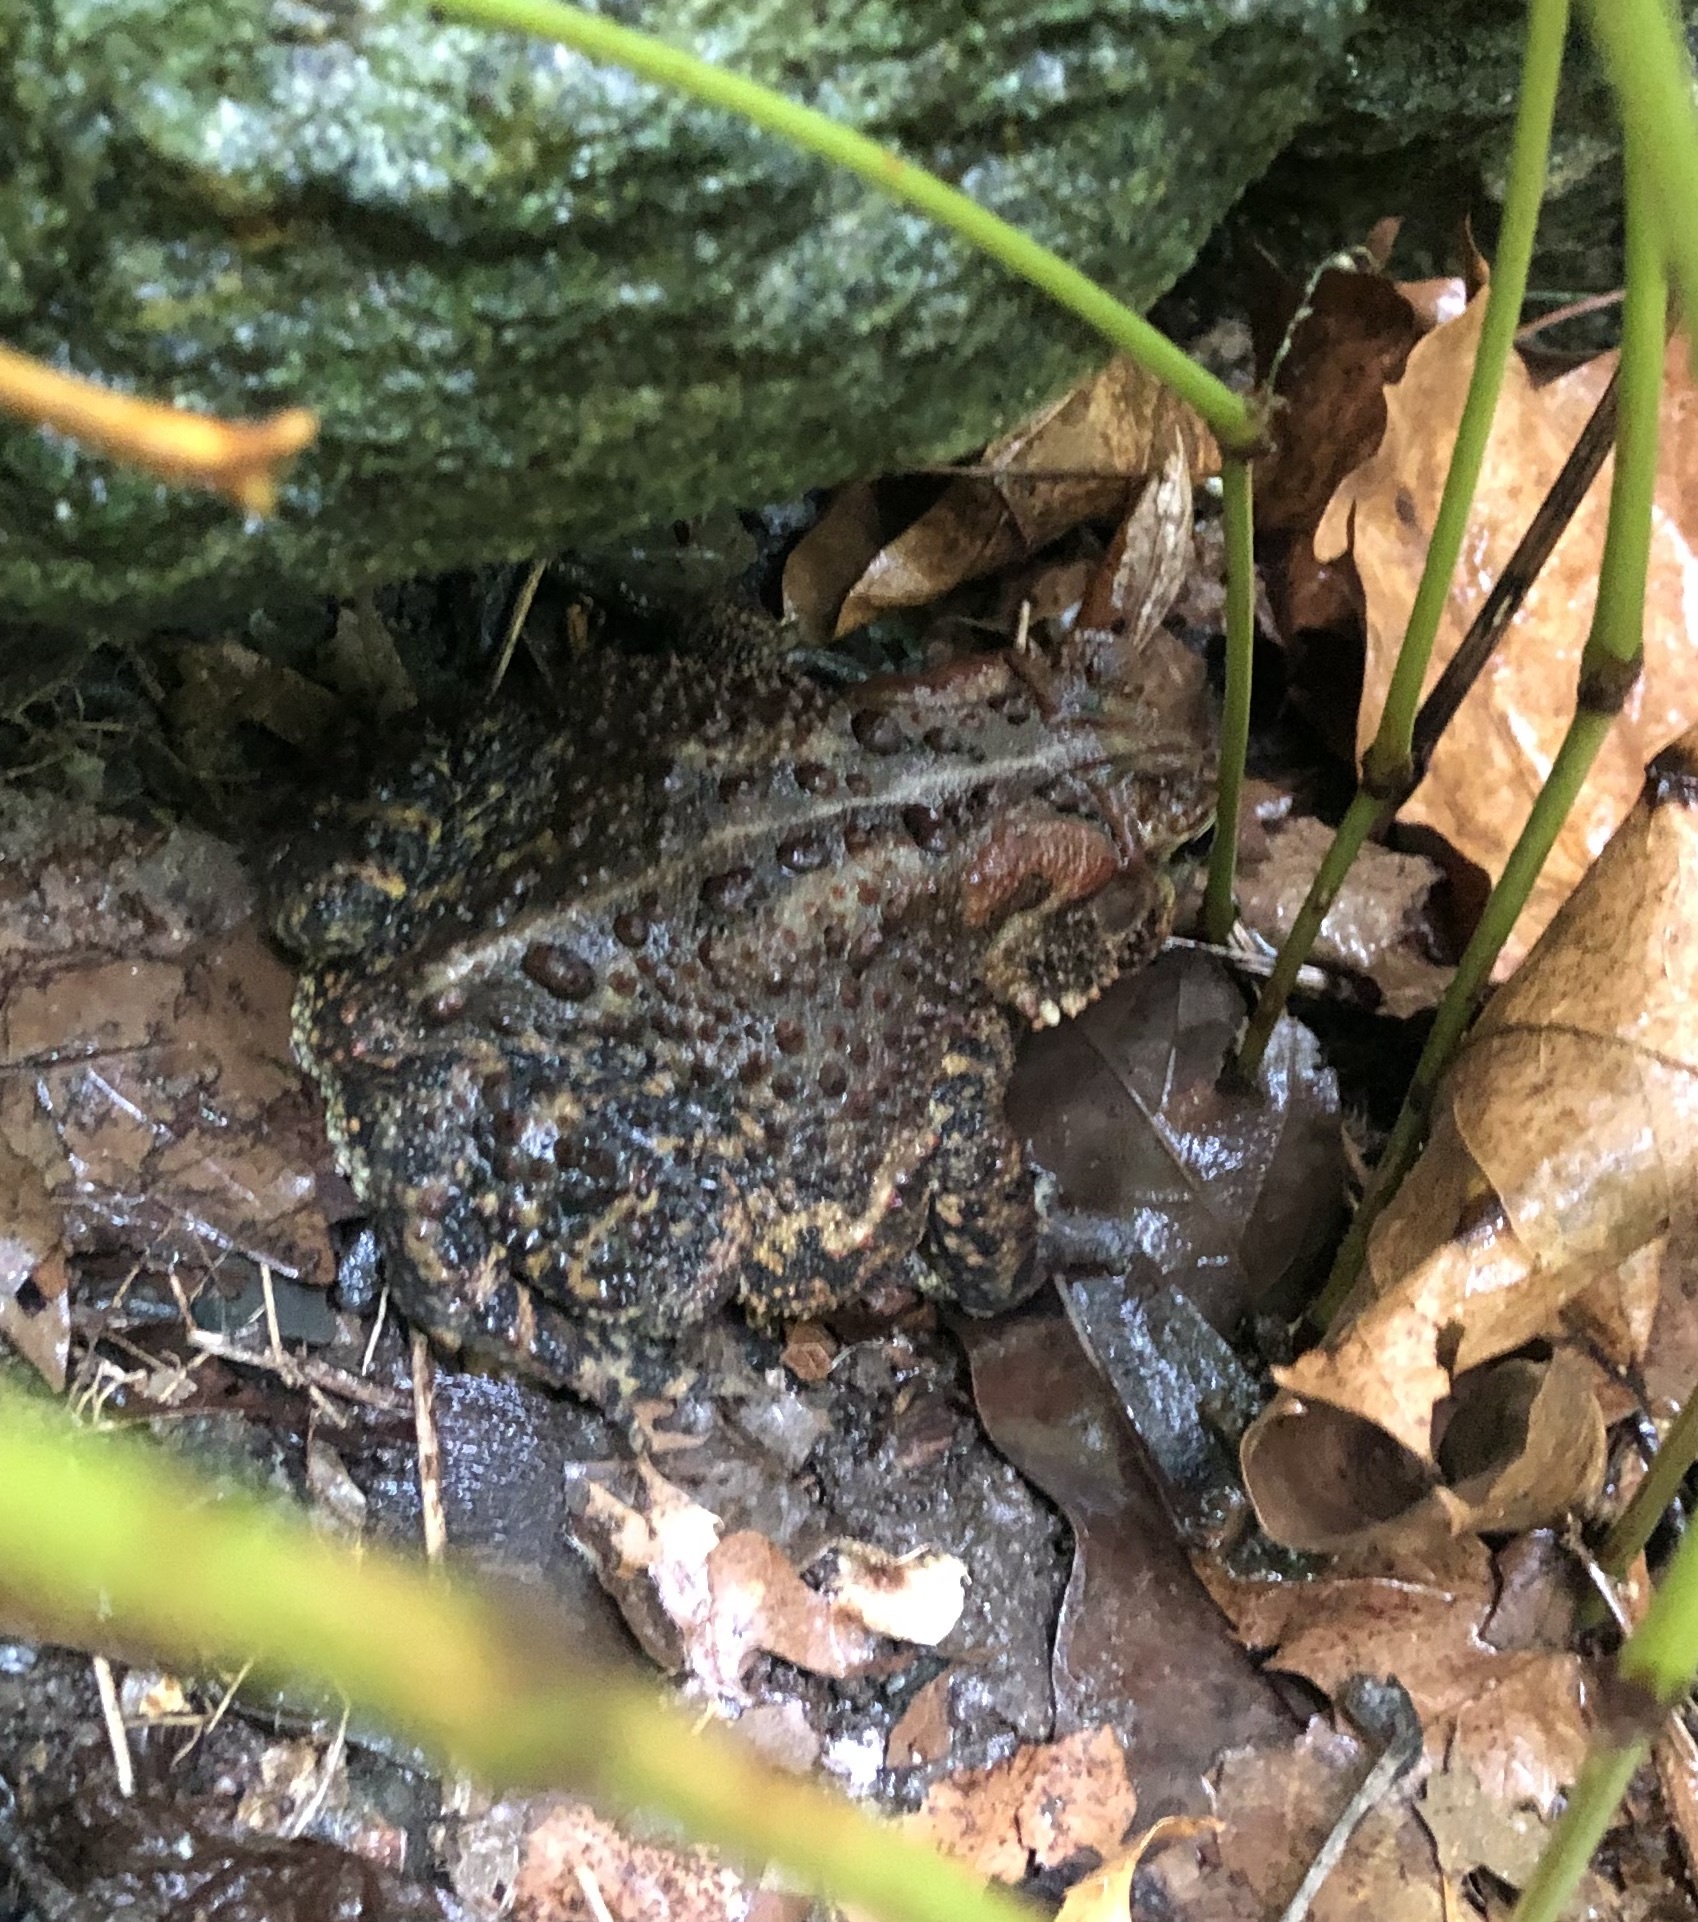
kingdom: Animalia
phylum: Chordata
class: Amphibia
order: Anura
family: Bufonidae
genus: Anaxyrus
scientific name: Anaxyrus americanus
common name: American toad
